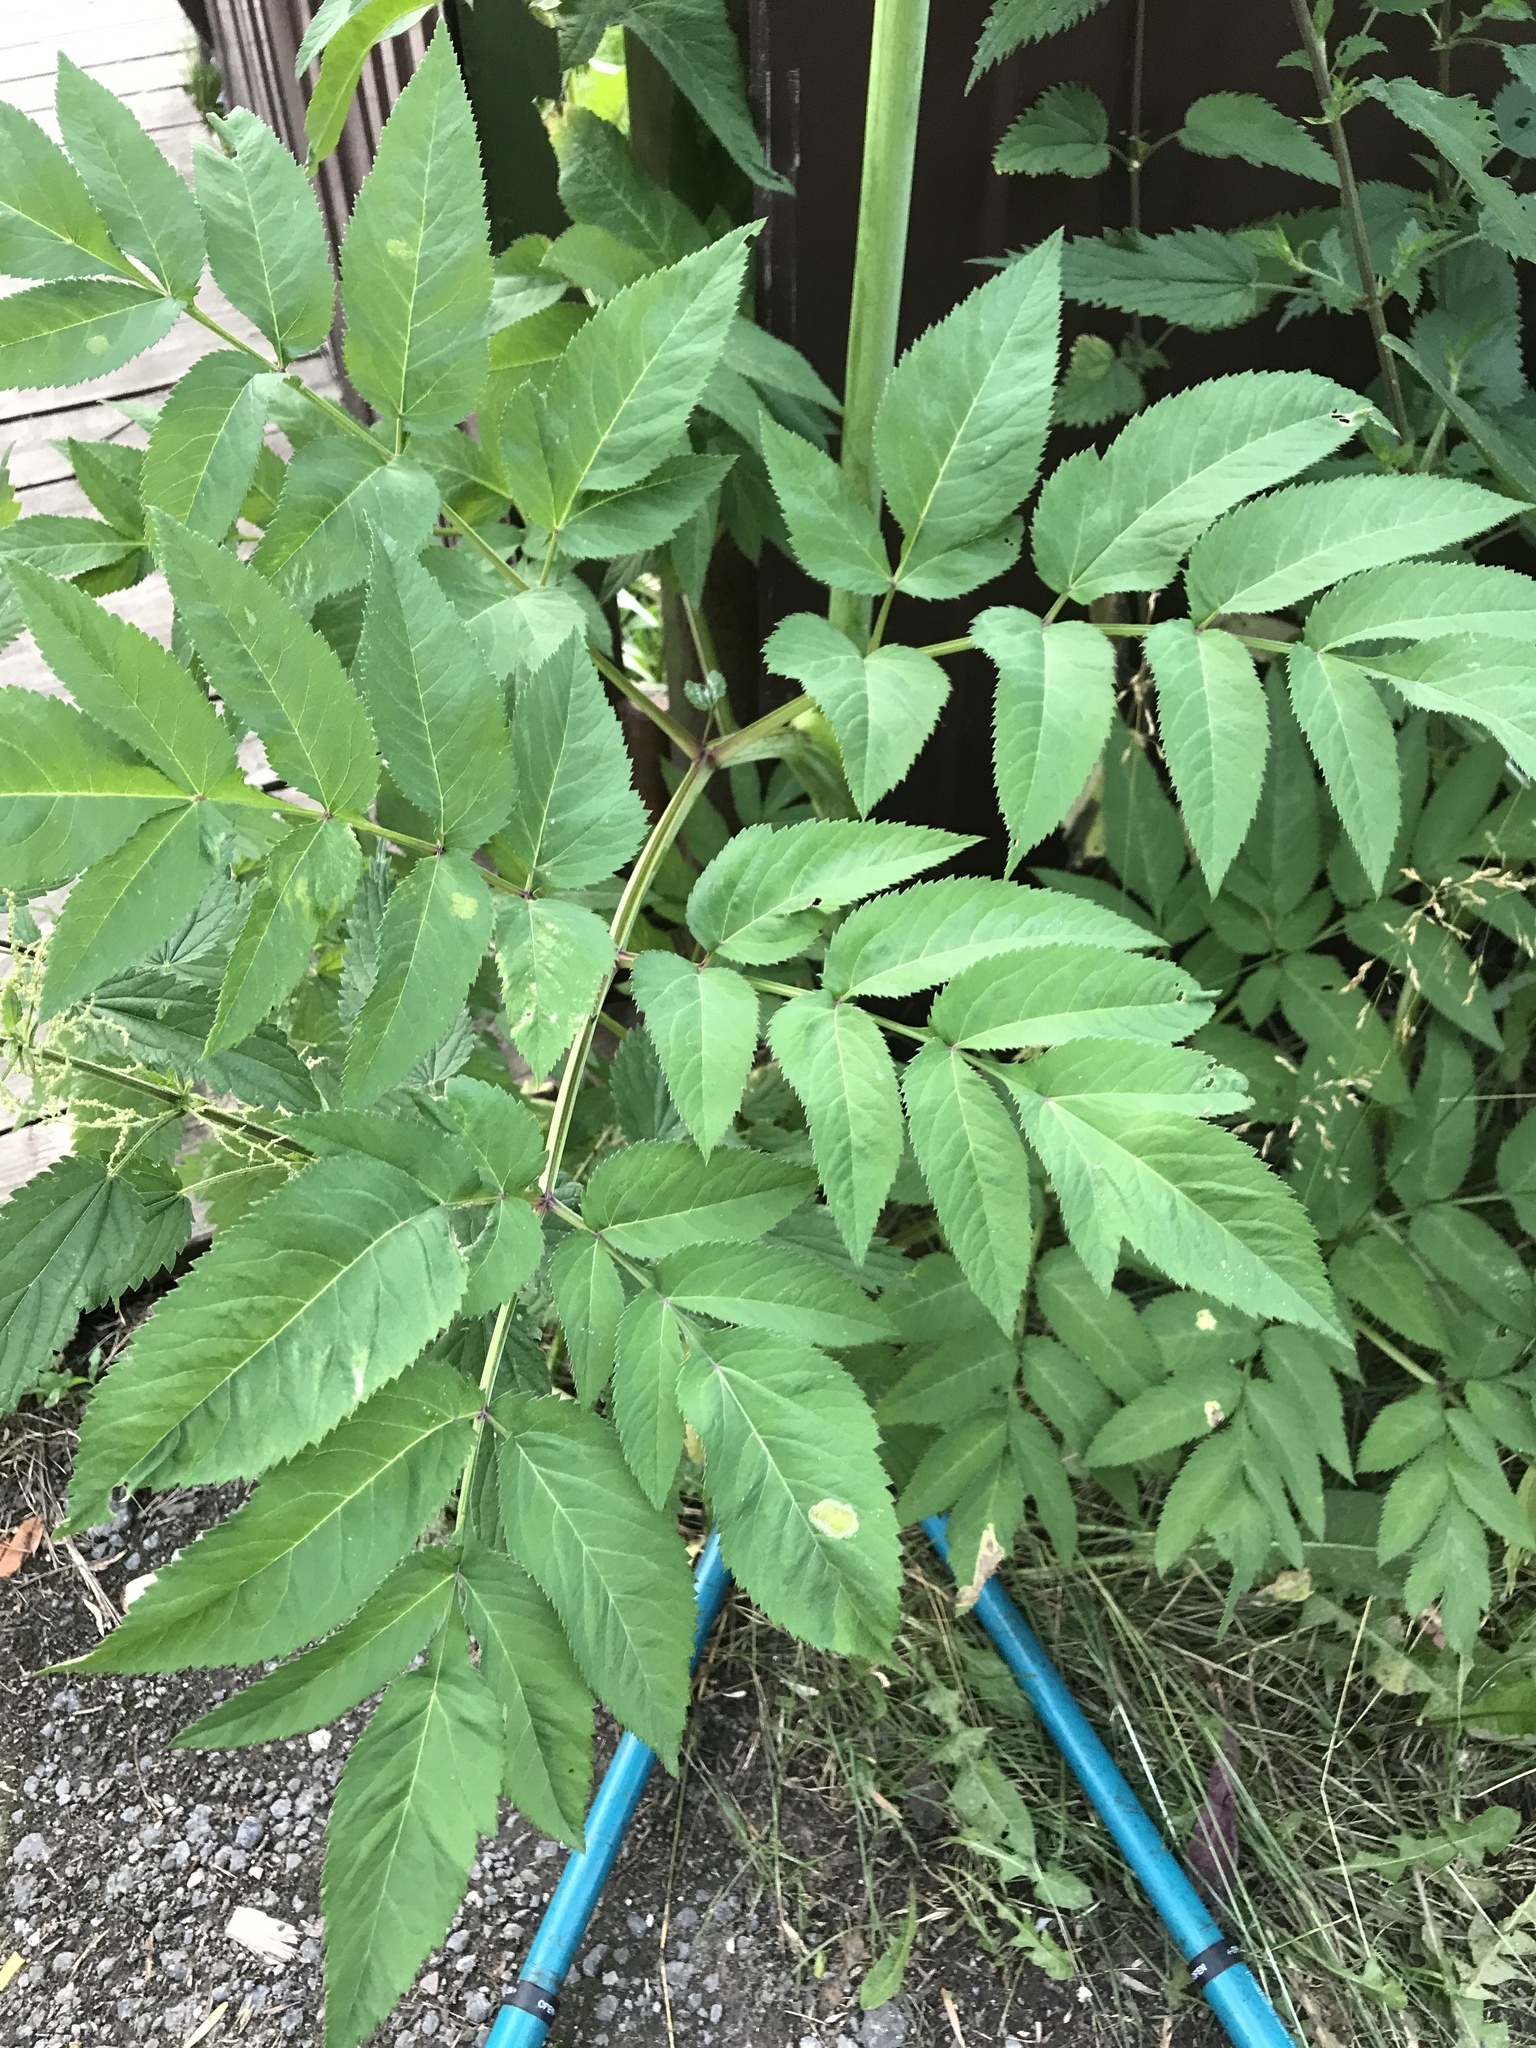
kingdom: Plantae
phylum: Tracheophyta
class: Magnoliopsida
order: Apiales
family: Apiaceae
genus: Angelica
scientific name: Angelica sylvestris
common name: Wild angelica
